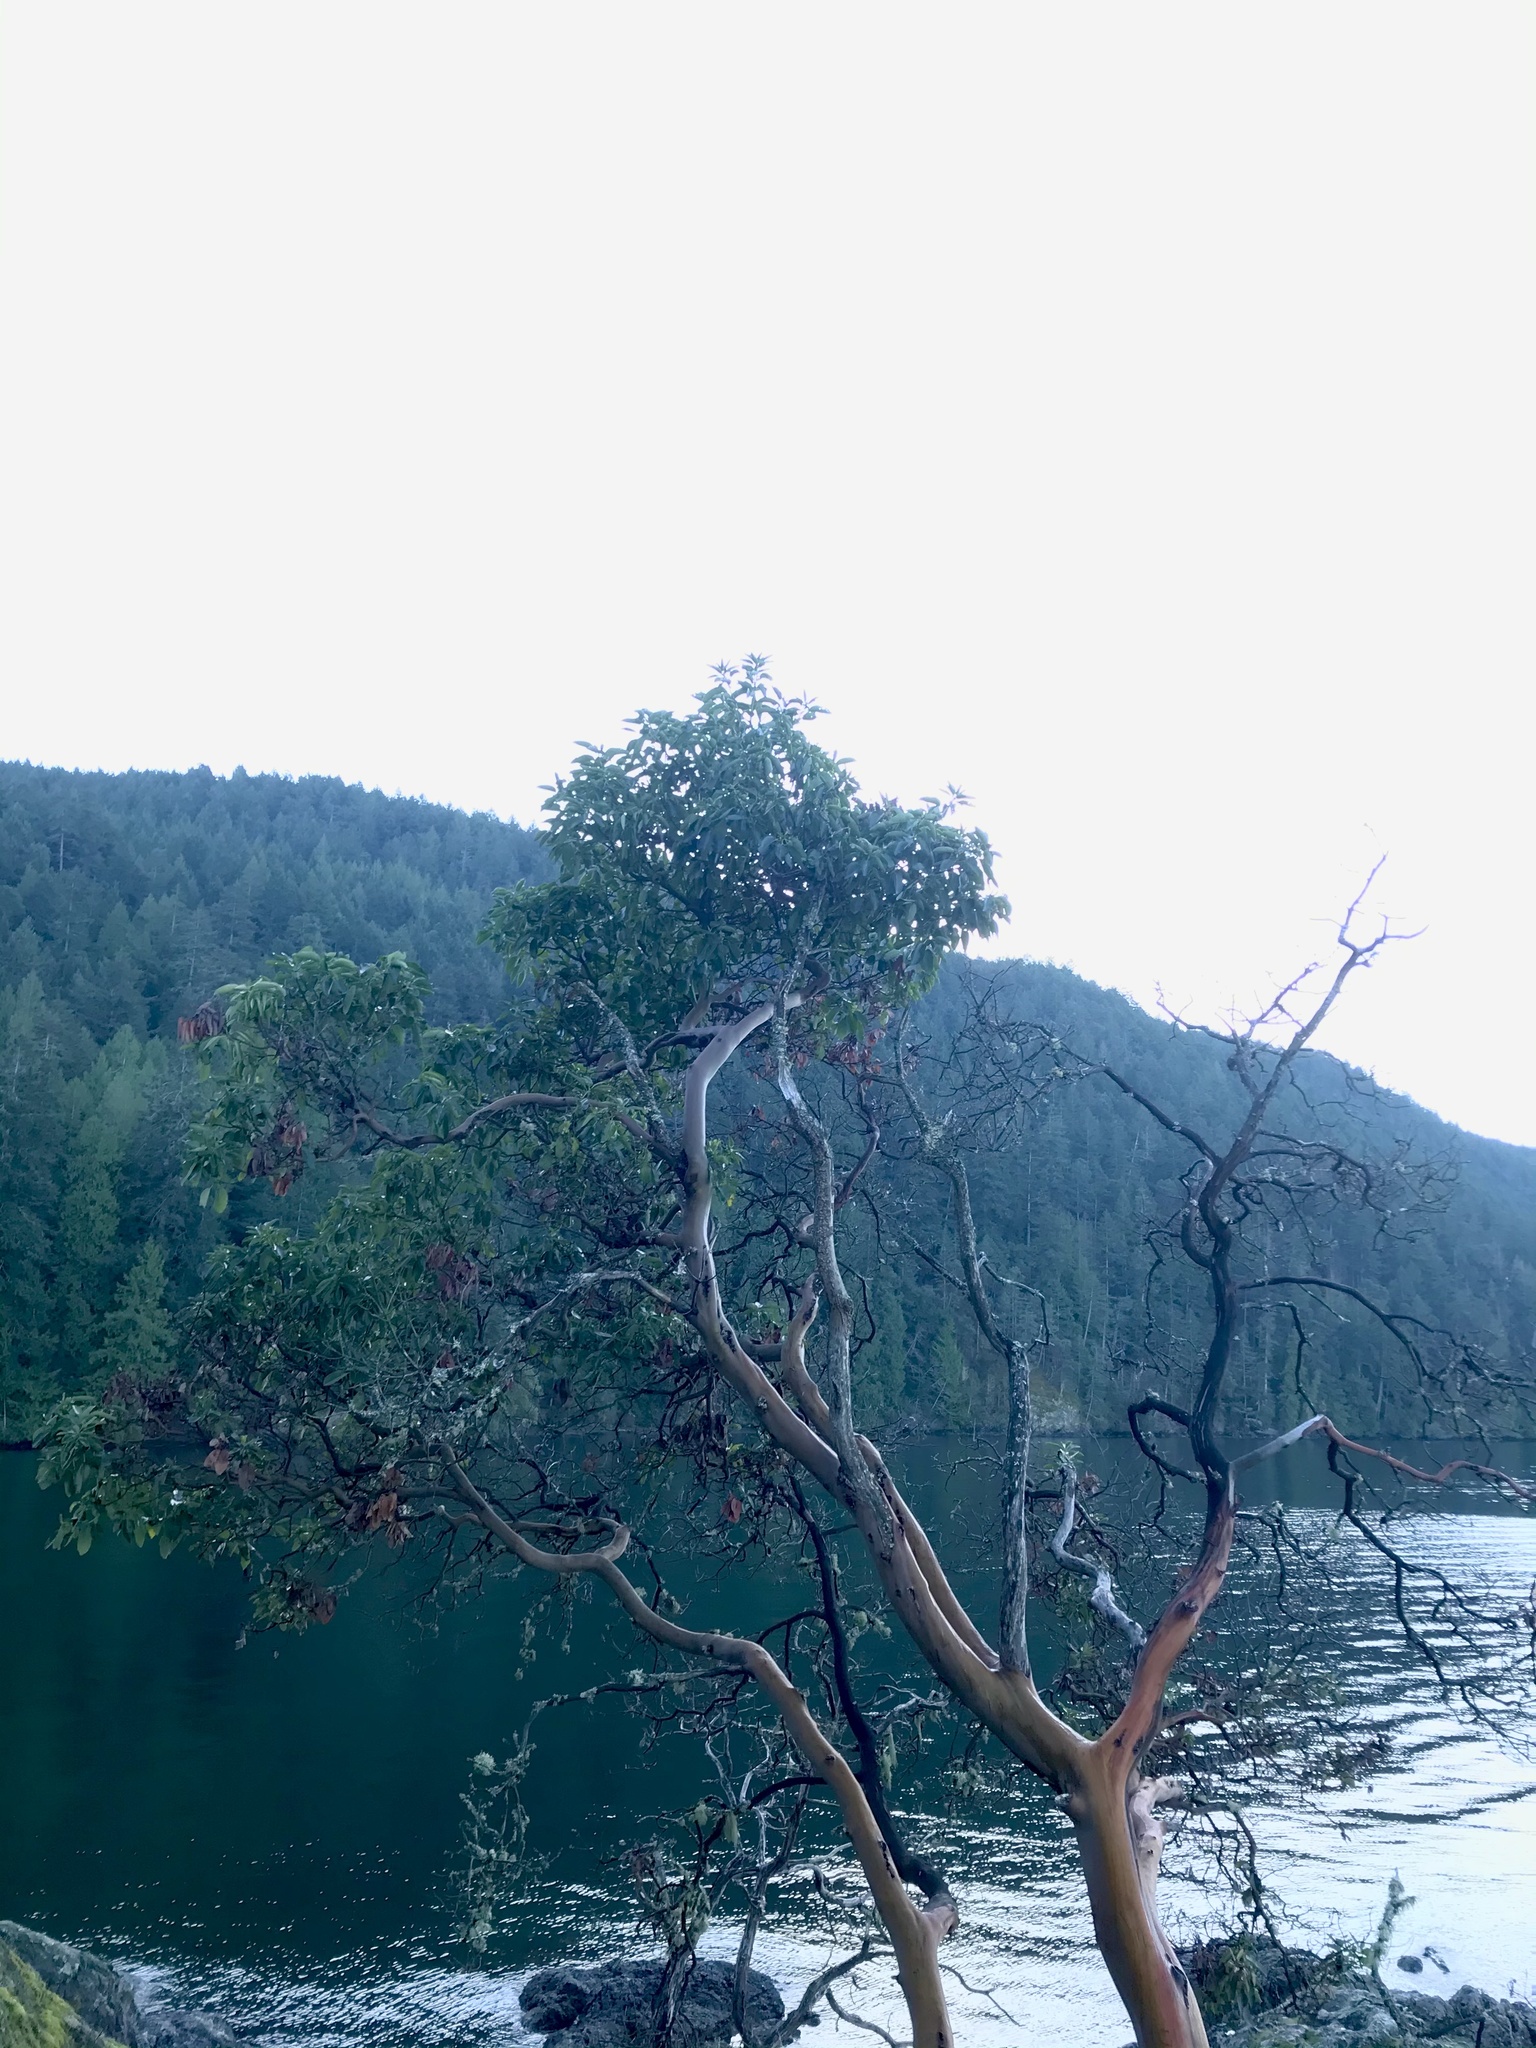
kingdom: Plantae
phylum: Tracheophyta
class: Magnoliopsida
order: Ericales
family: Ericaceae
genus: Arbutus
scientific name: Arbutus menziesii
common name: Pacific madrone
